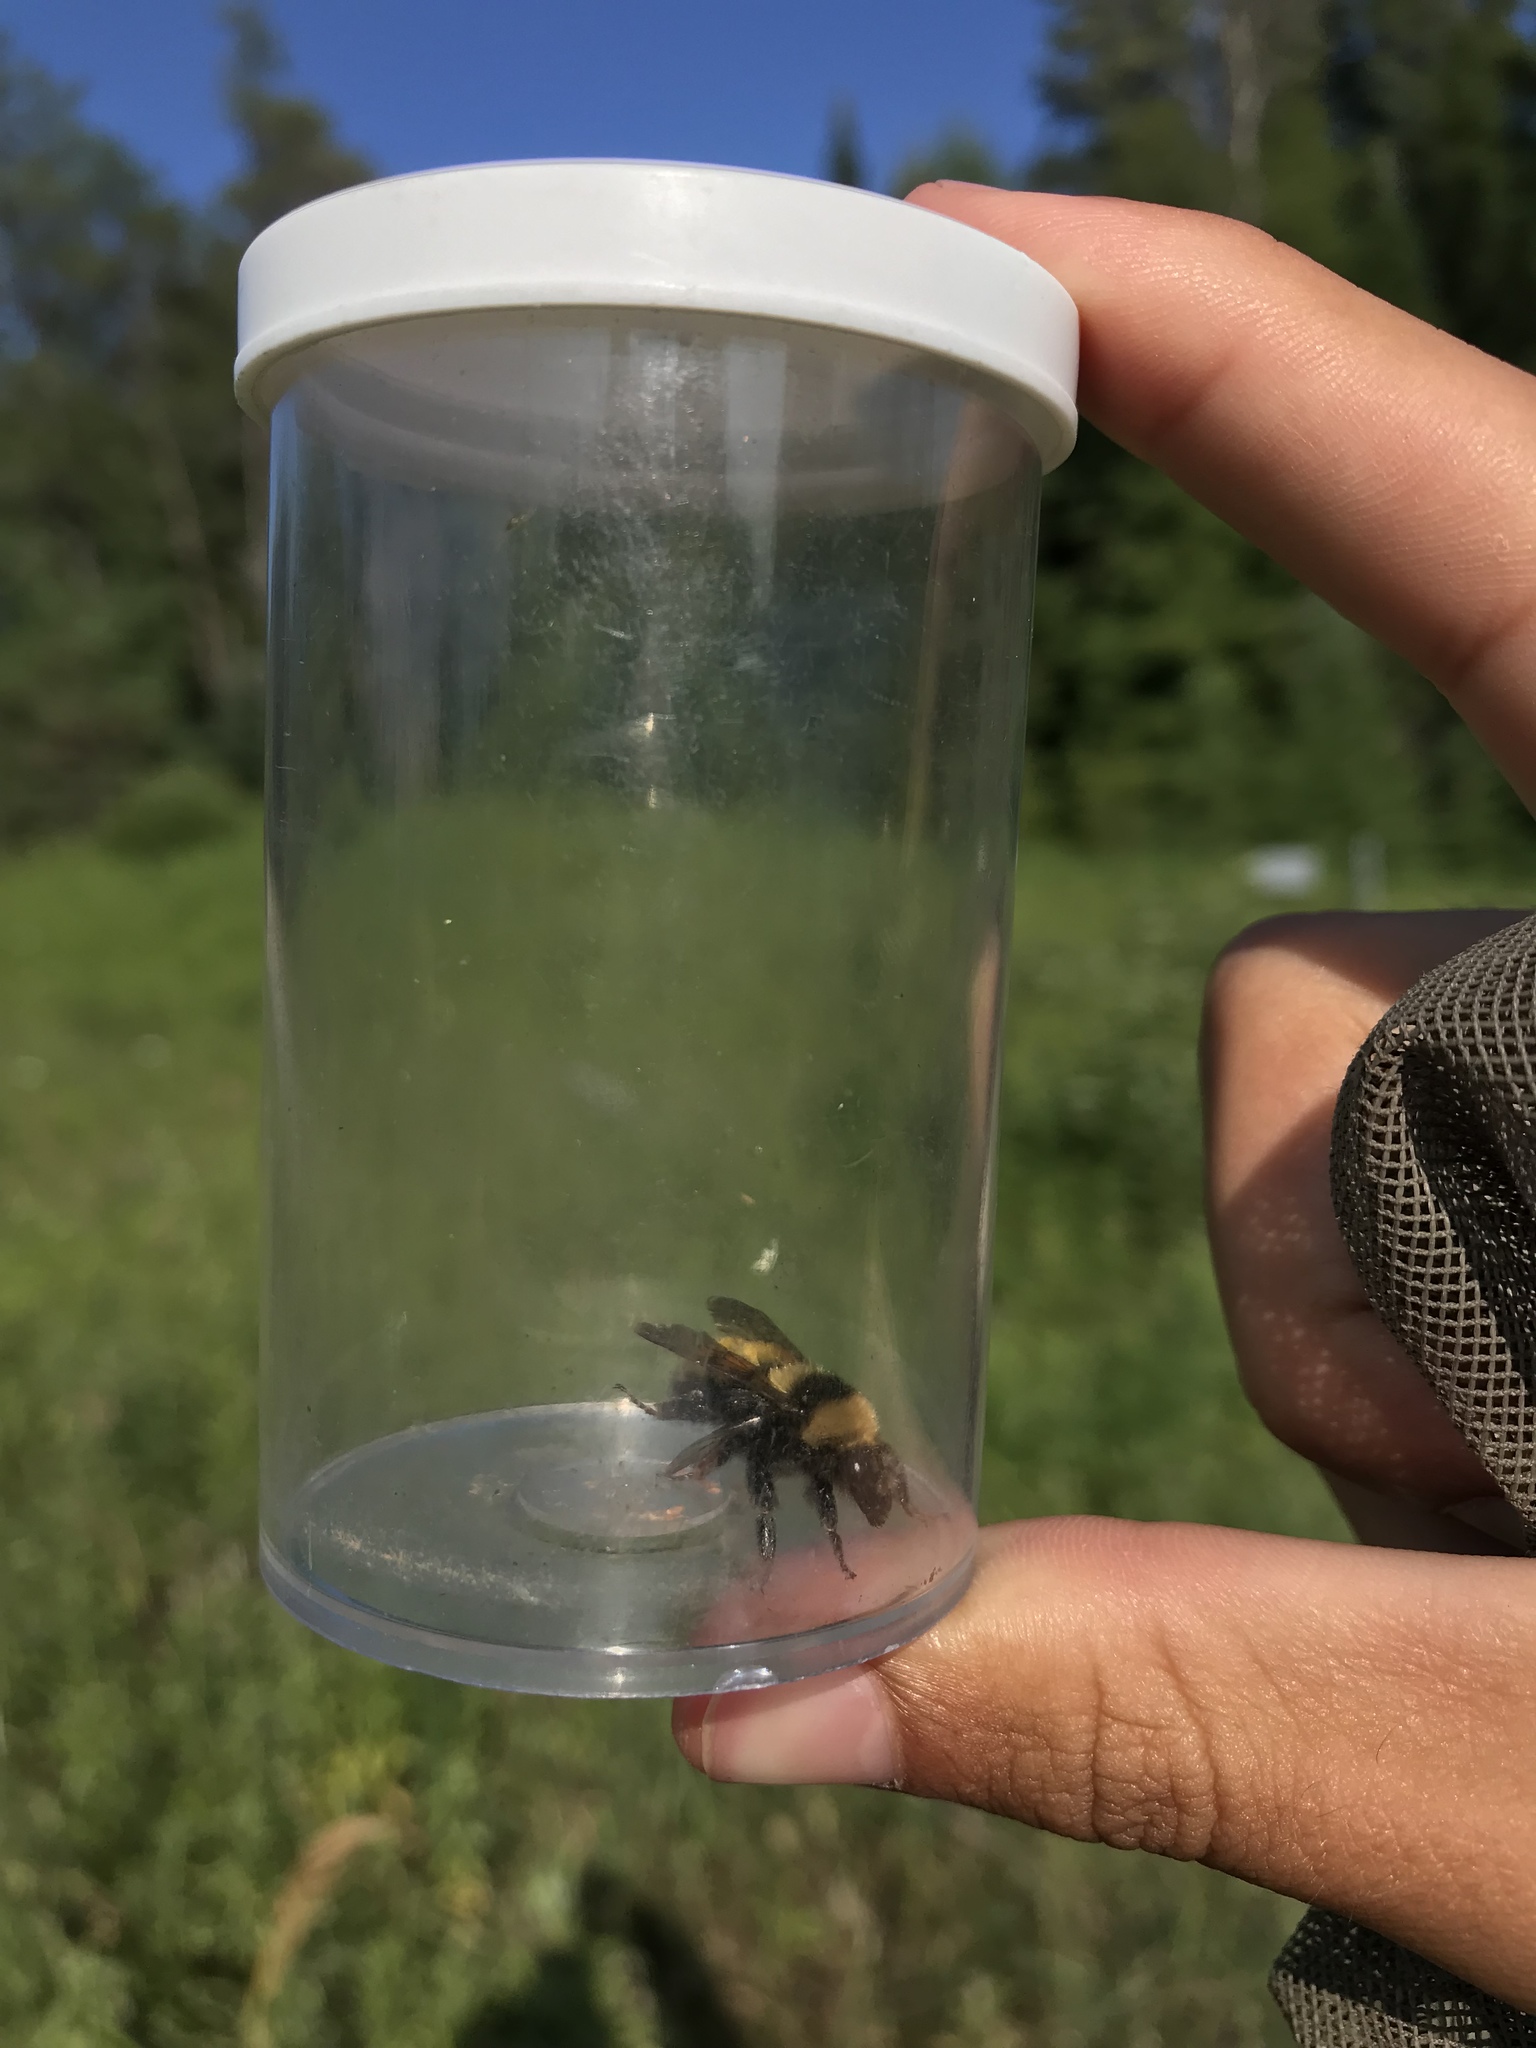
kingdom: Animalia
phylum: Arthropoda
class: Insecta
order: Hymenoptera
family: Apidae
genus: Bombus
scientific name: Bombus borealis
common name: Northern amber bumble bee
